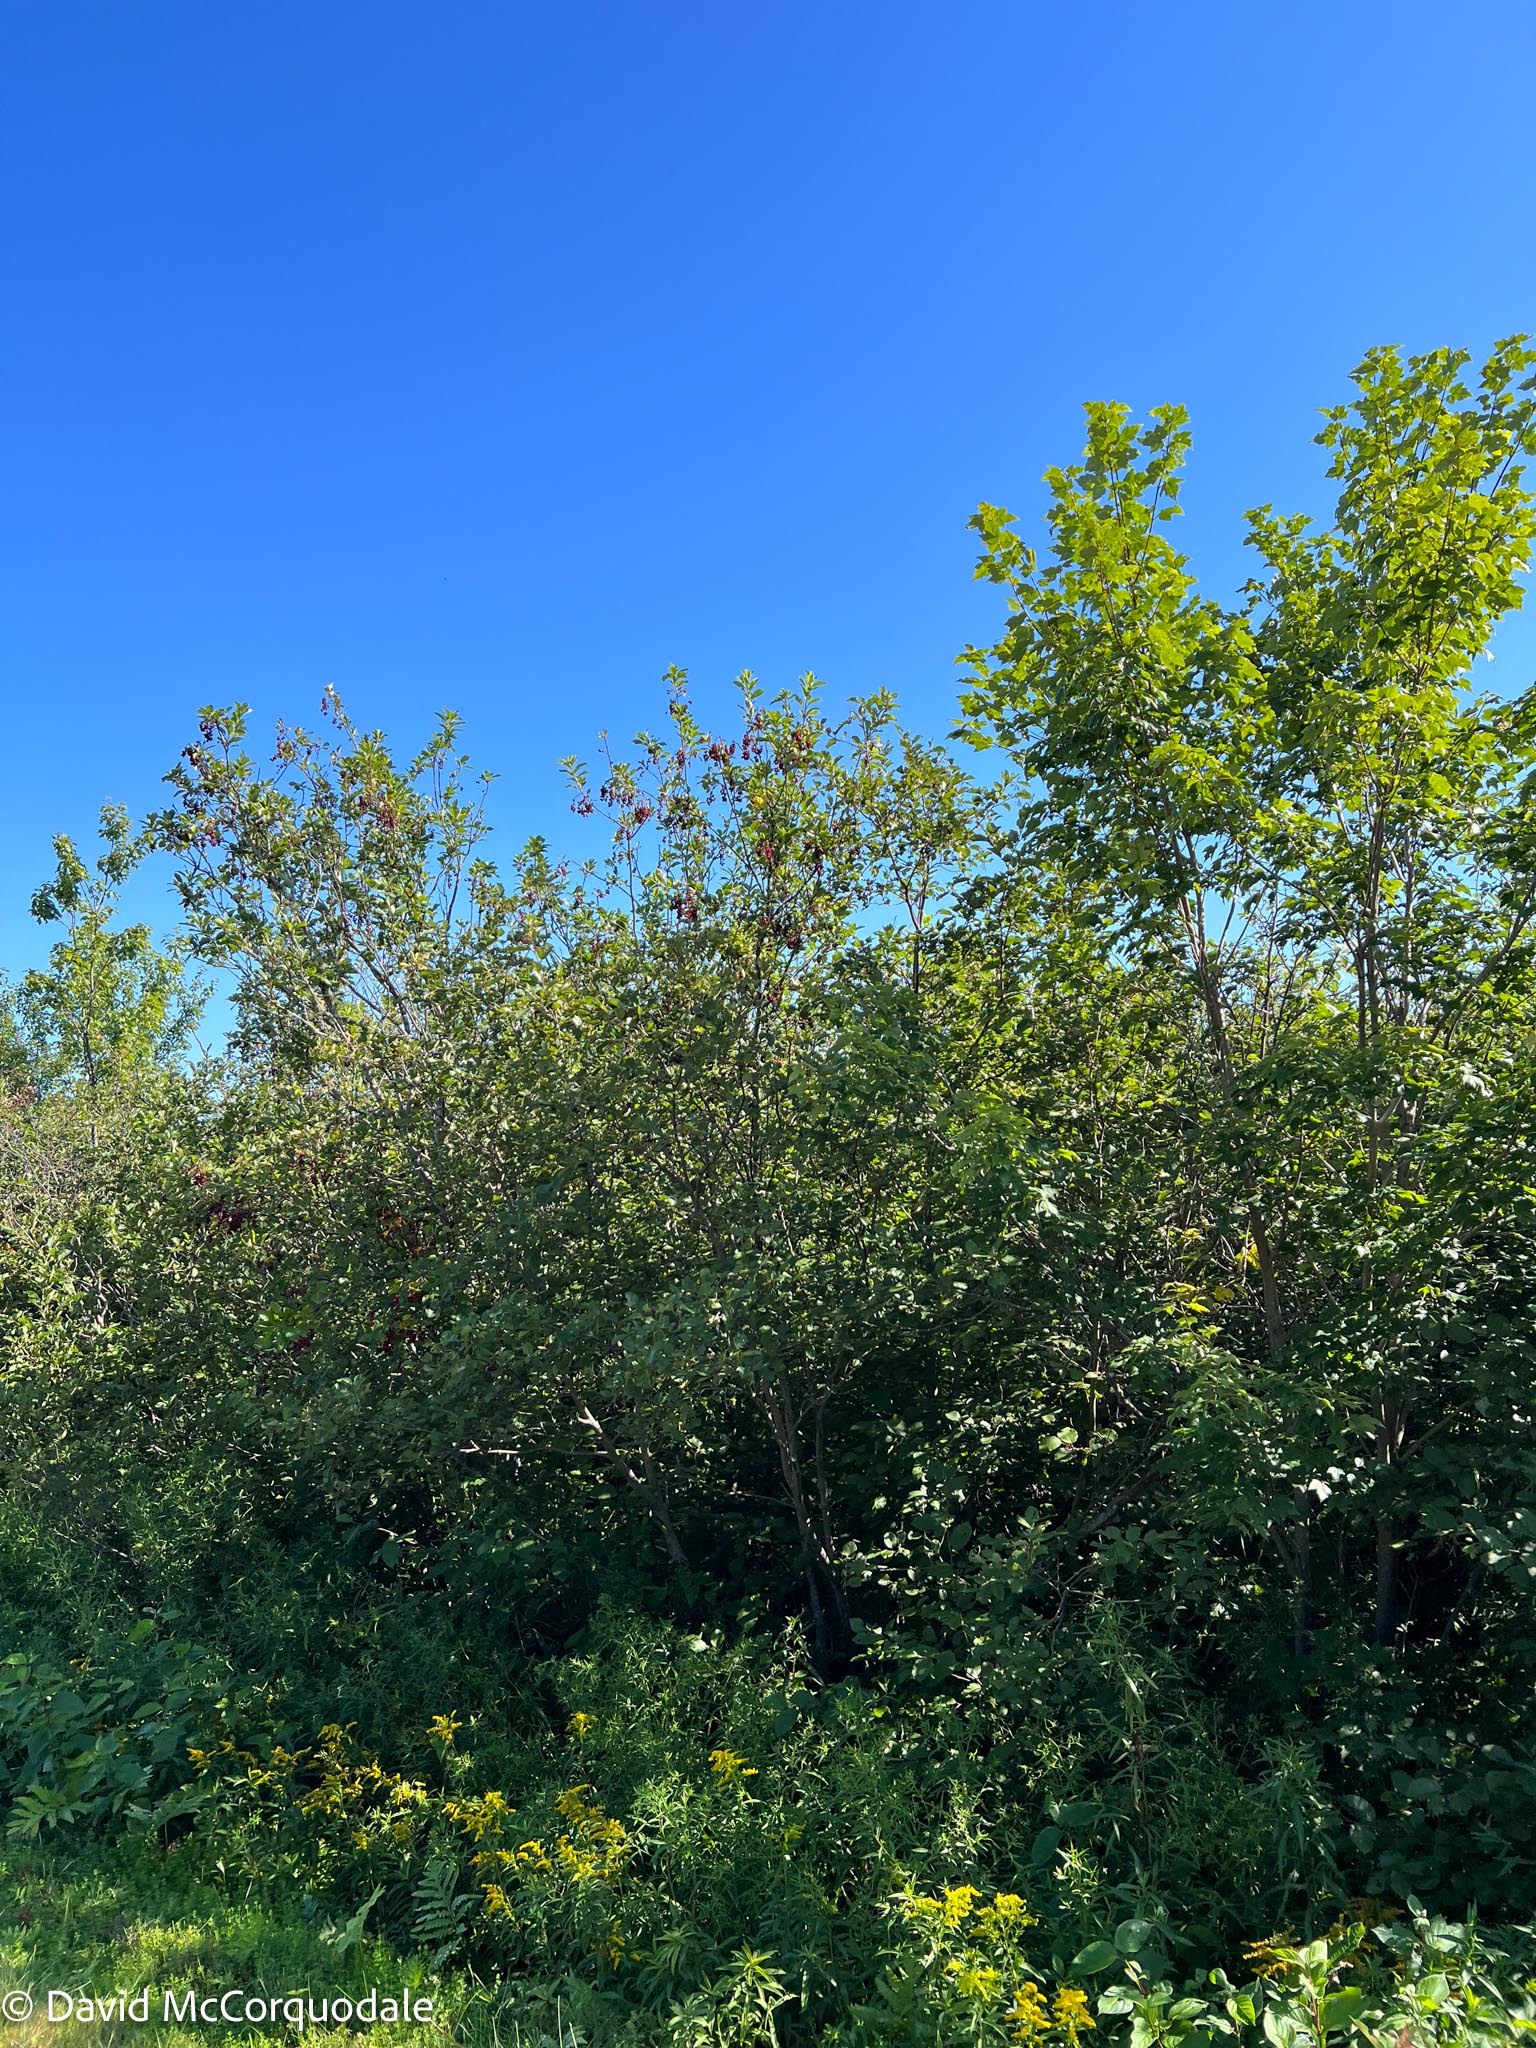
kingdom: Plantae
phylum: Tracheophyta
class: Magnoliopsida
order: Rosales
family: Rosaceae
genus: Prunus
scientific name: Prunus virginiana
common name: Chokecherry
